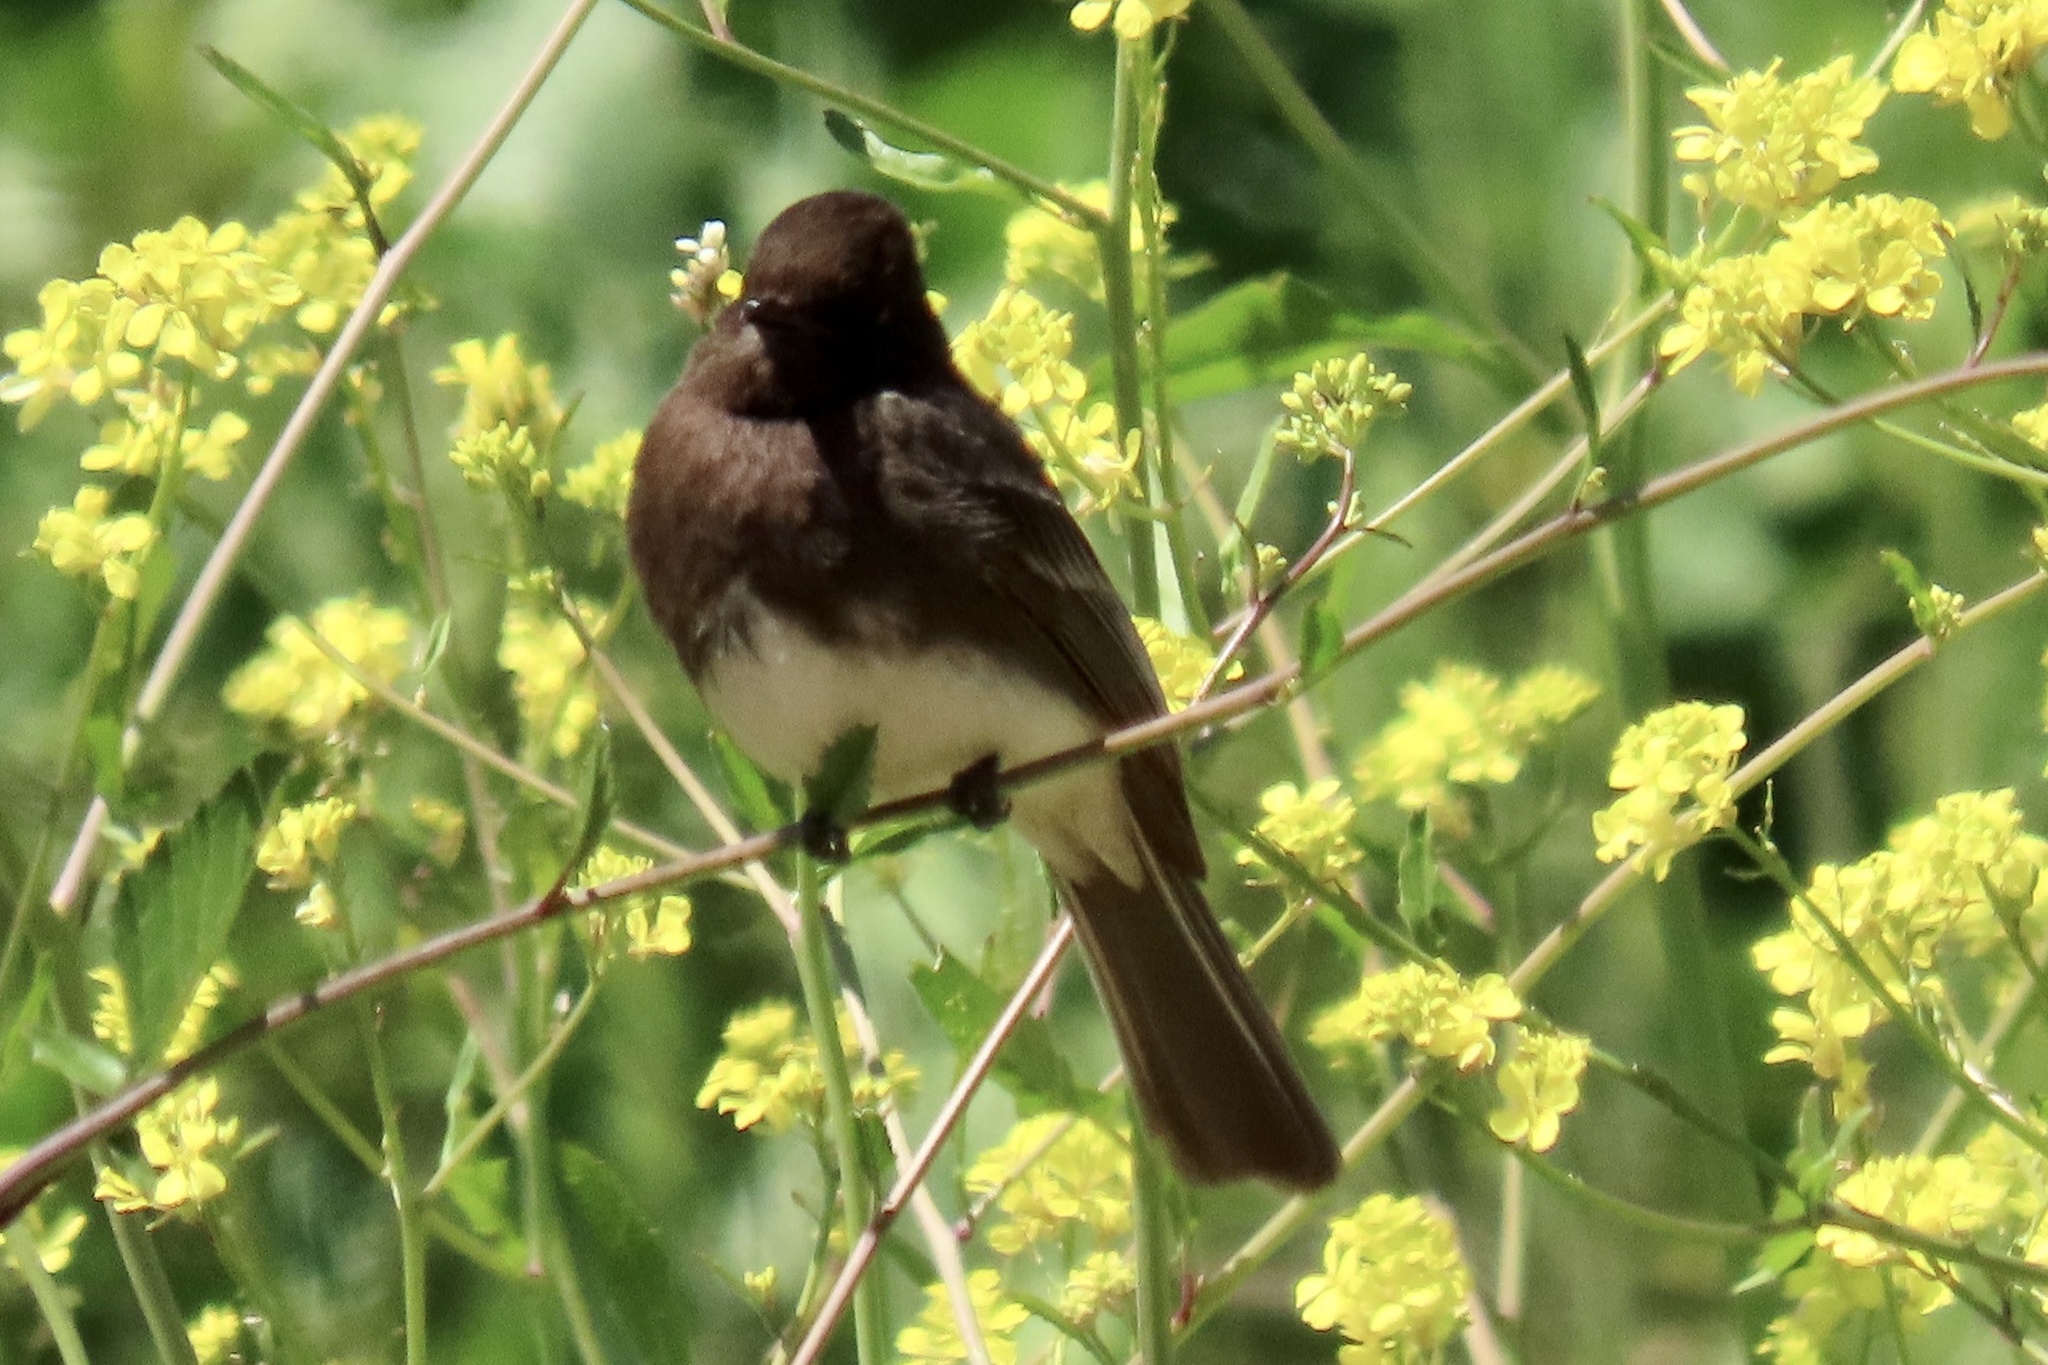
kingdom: Animalia
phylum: Chordata
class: Aves
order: Passeriformes
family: Tyrannidae
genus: Sayornis
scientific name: Sayornis nigricans
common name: Black phoebe
